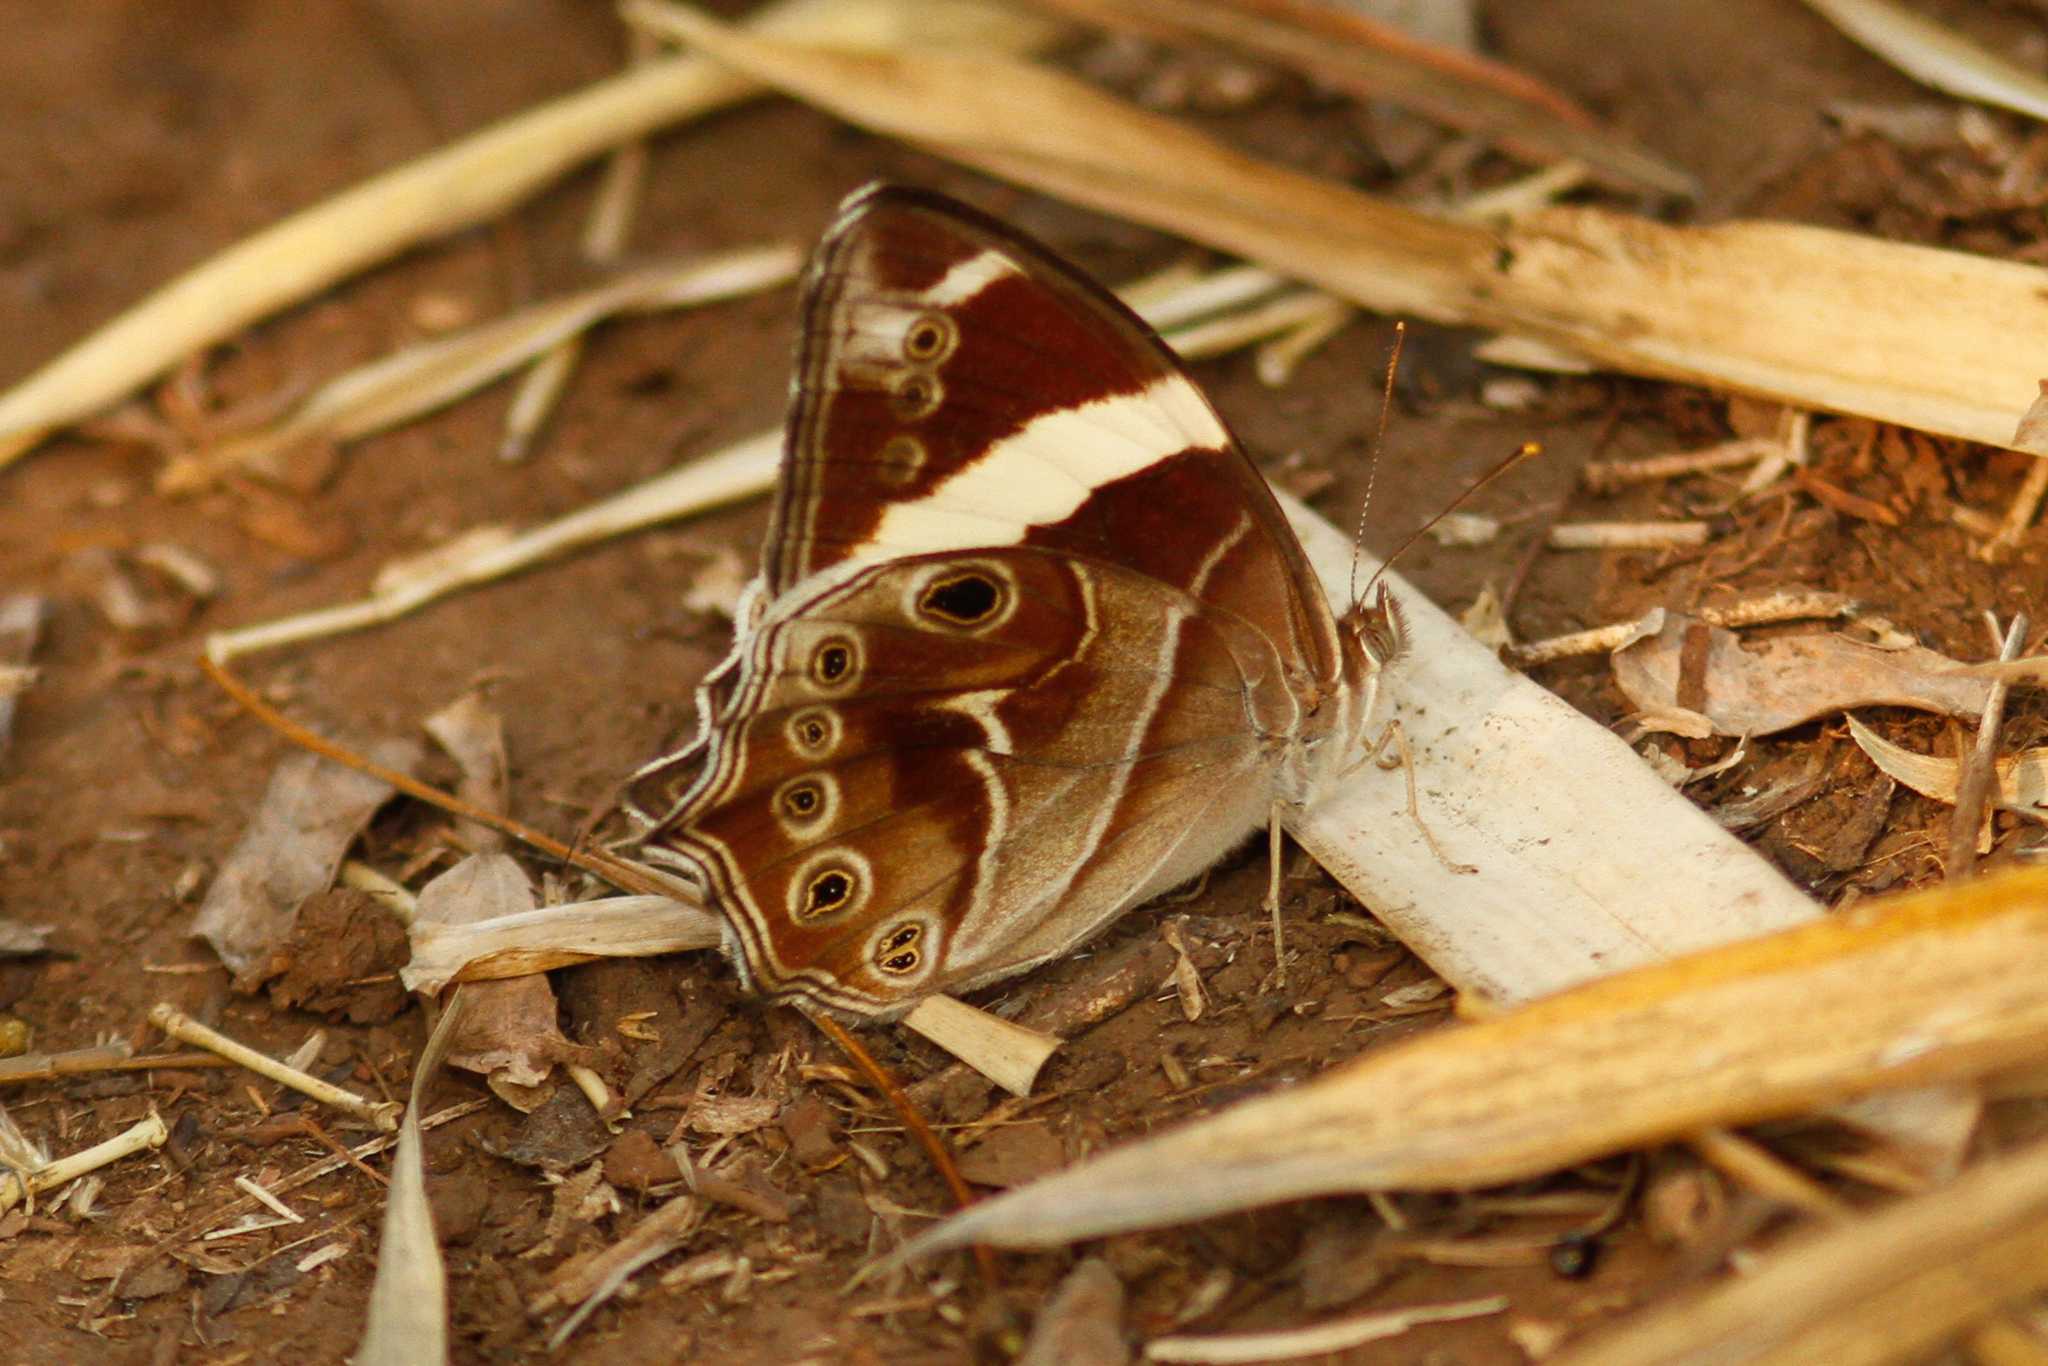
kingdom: Animalia
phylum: Arthropoda
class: Insecta
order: Lepidoptera
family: Nymphalidae
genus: Lethe
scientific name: Lethe confusa
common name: Banded treebrown
